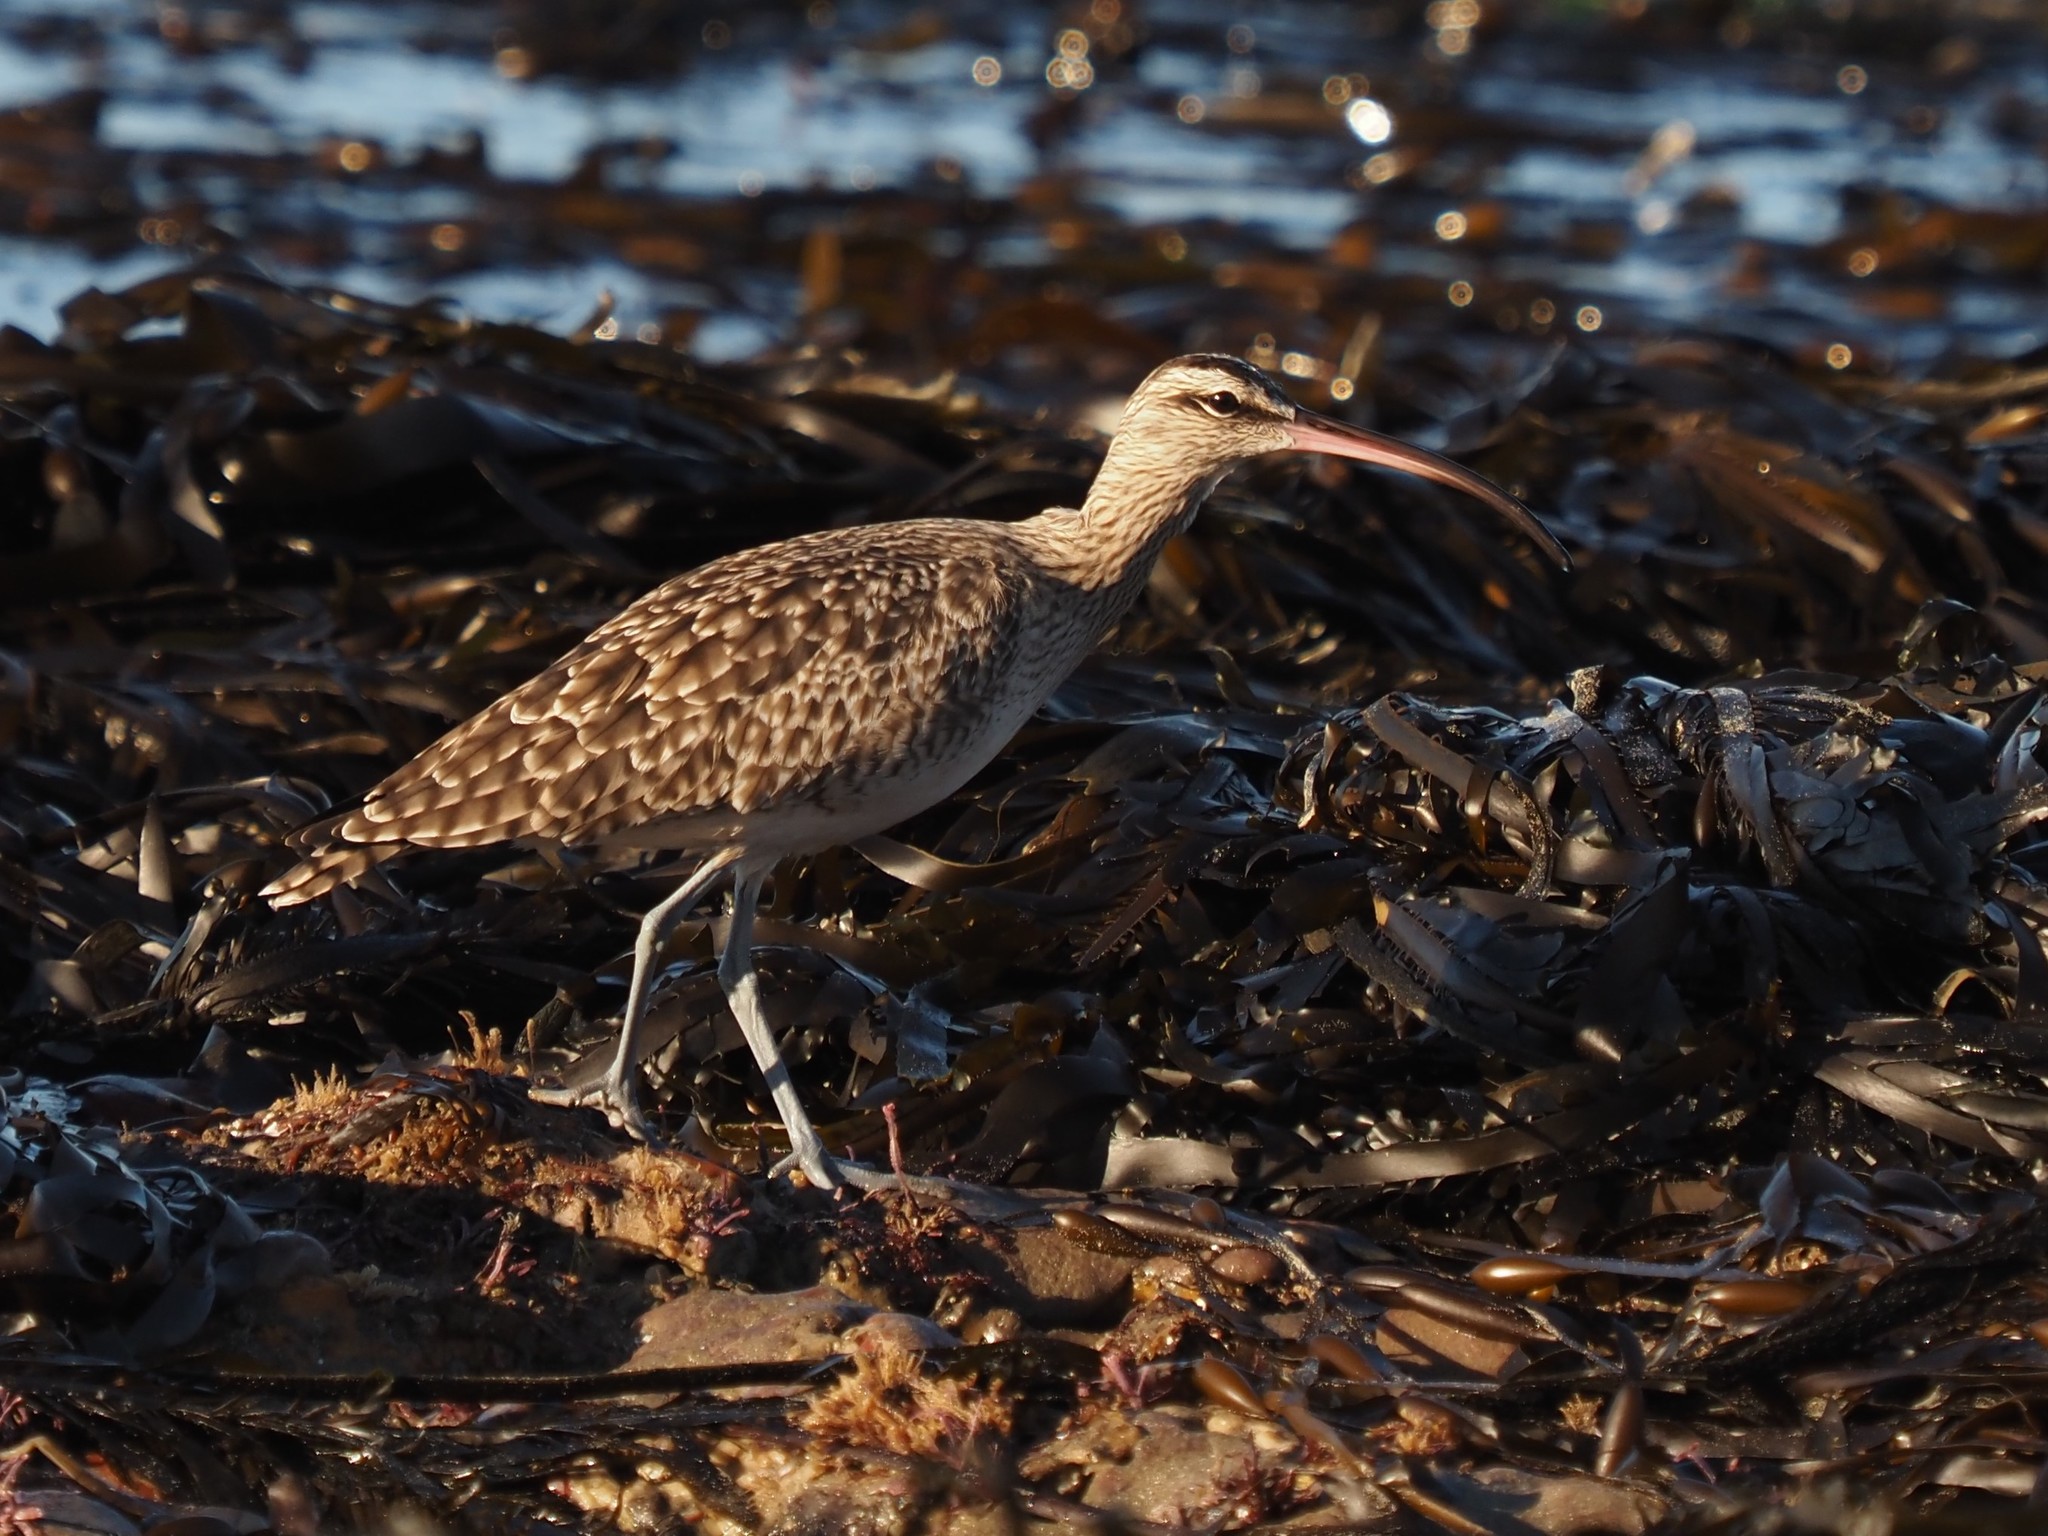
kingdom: Animalia
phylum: Chordata
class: Aves
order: Charadriiformes
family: Scolopacidae
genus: Numenius
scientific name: Numenius phaeopus
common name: Whimbrel
